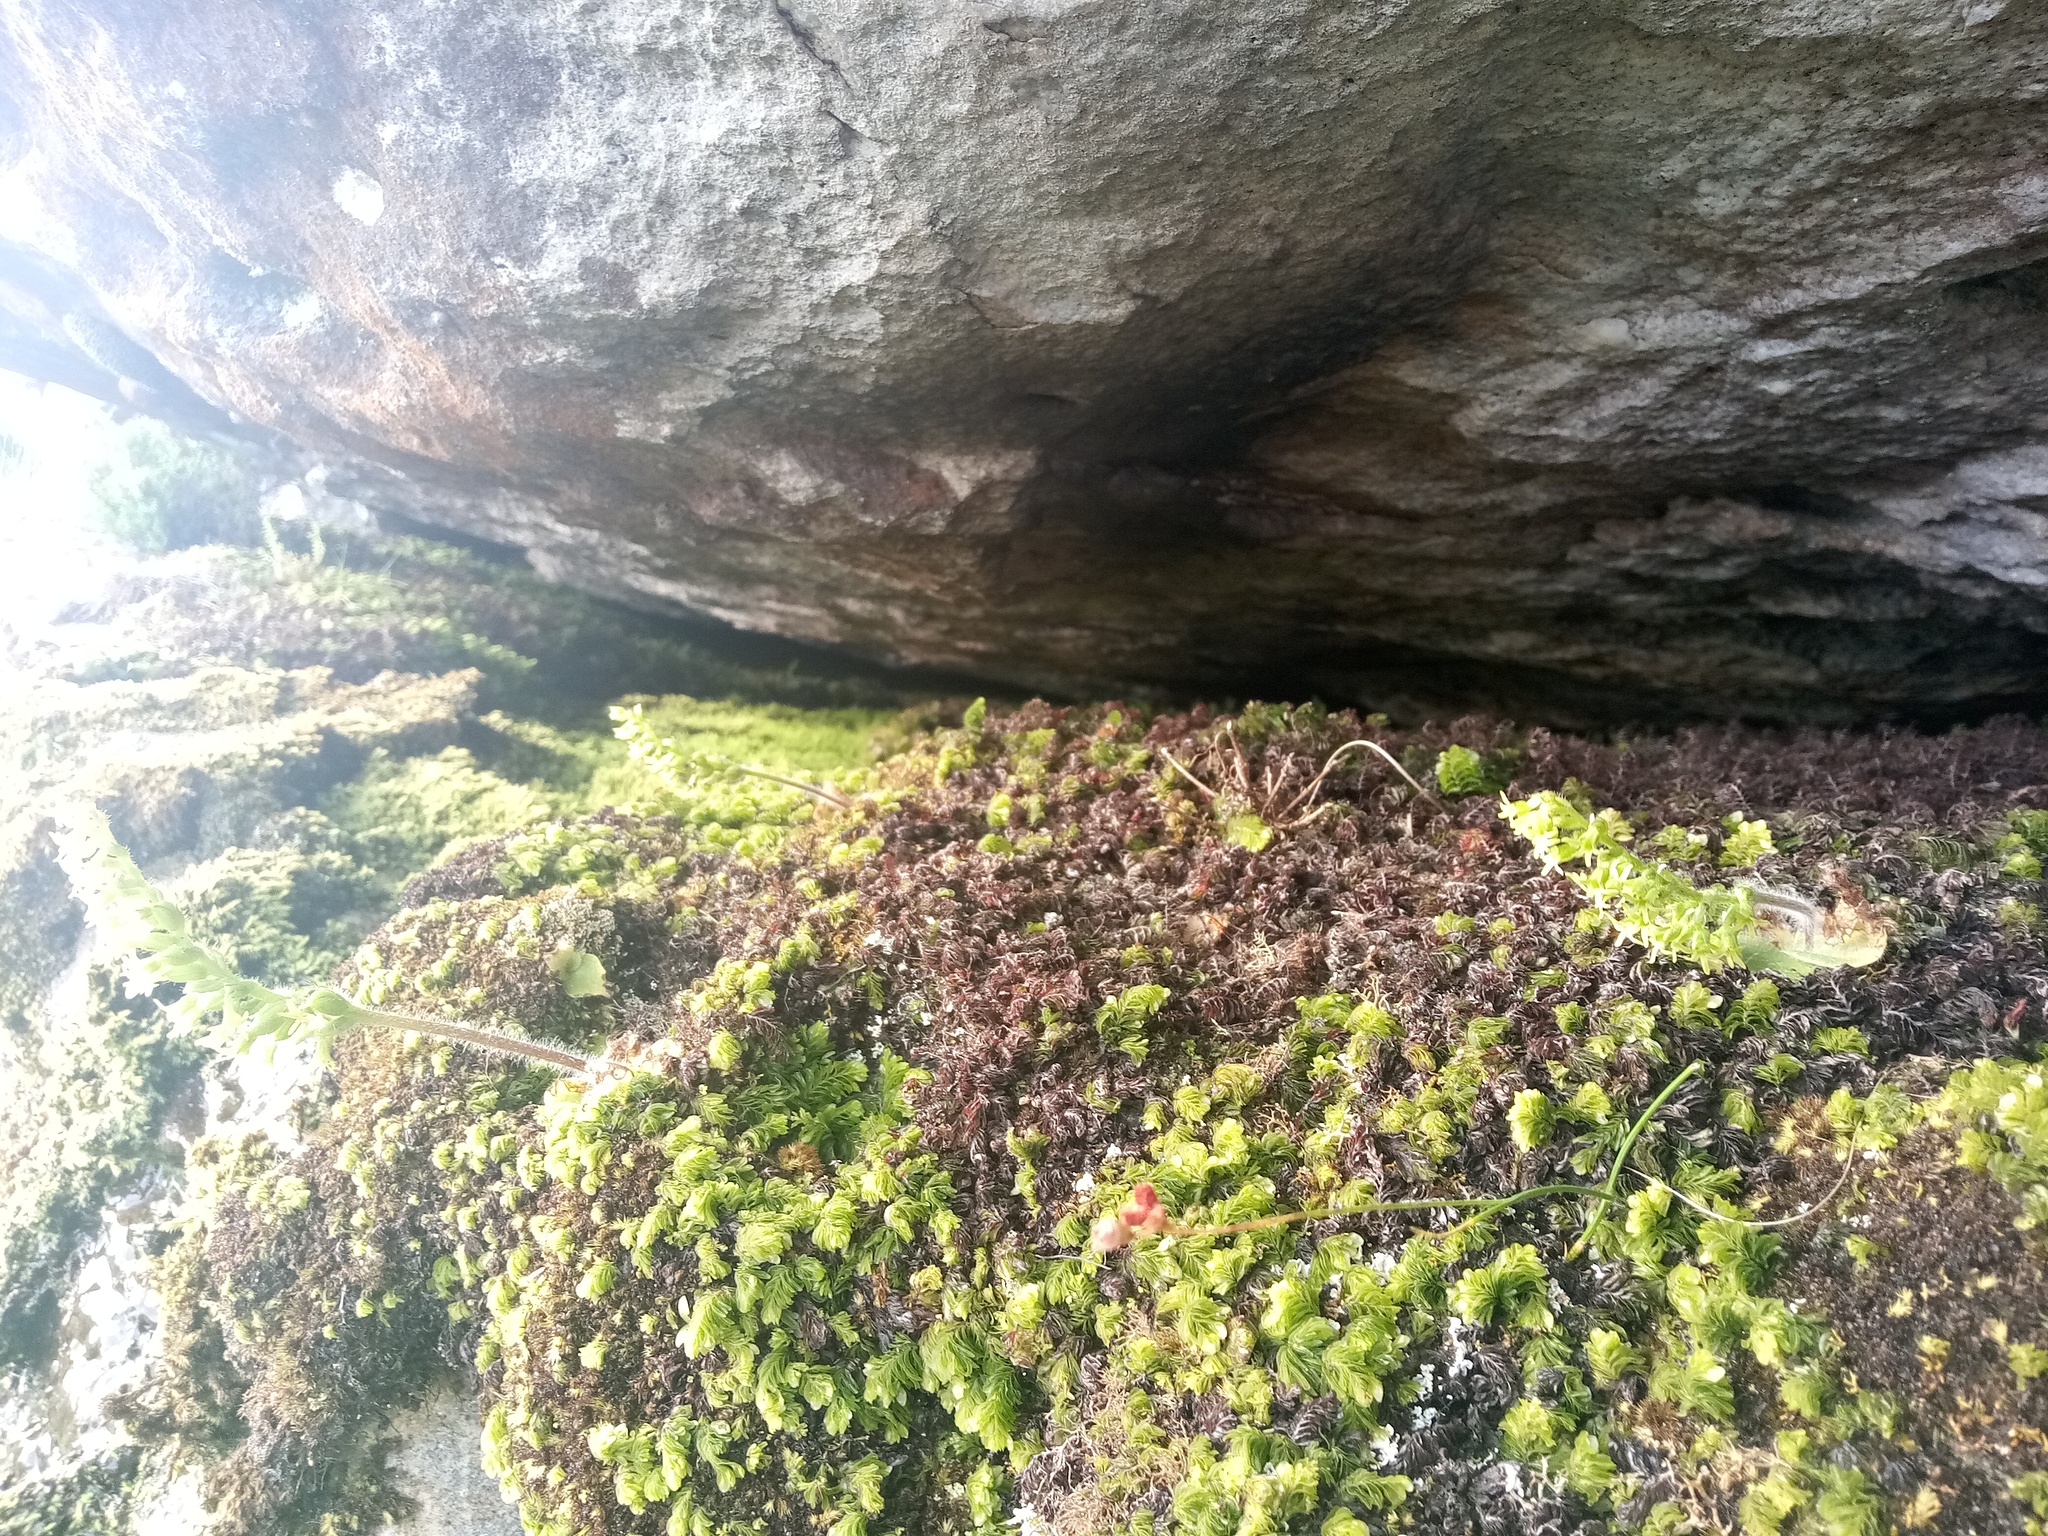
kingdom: Plantae
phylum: Tracheophyta
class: Liliopsida
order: Asparagales
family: Orchidaceae
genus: Holothrix
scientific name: Holothrix condensata
